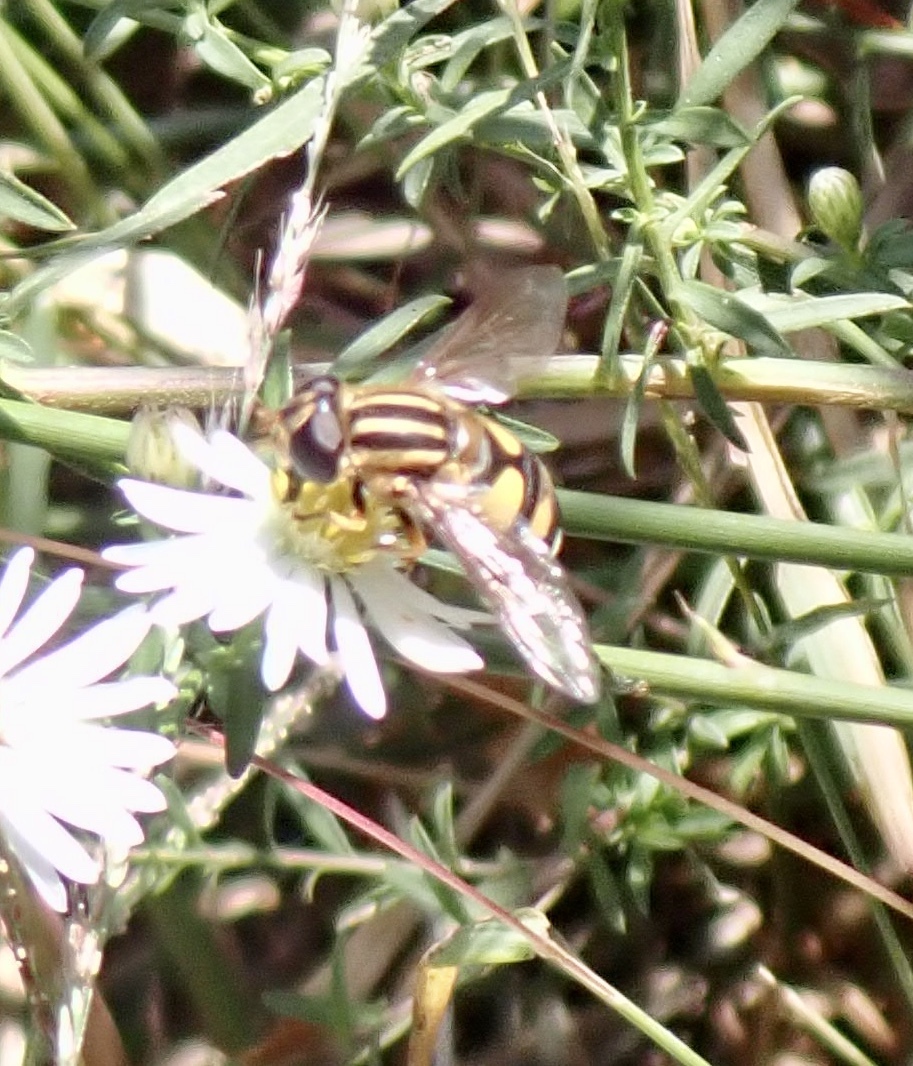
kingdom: Animalia
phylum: Arthropoda
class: Insecta
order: Diptera
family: Syrphidae
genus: Helophilus
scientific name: Helophilus fasciatus
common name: Narrow-headed marsh fly
